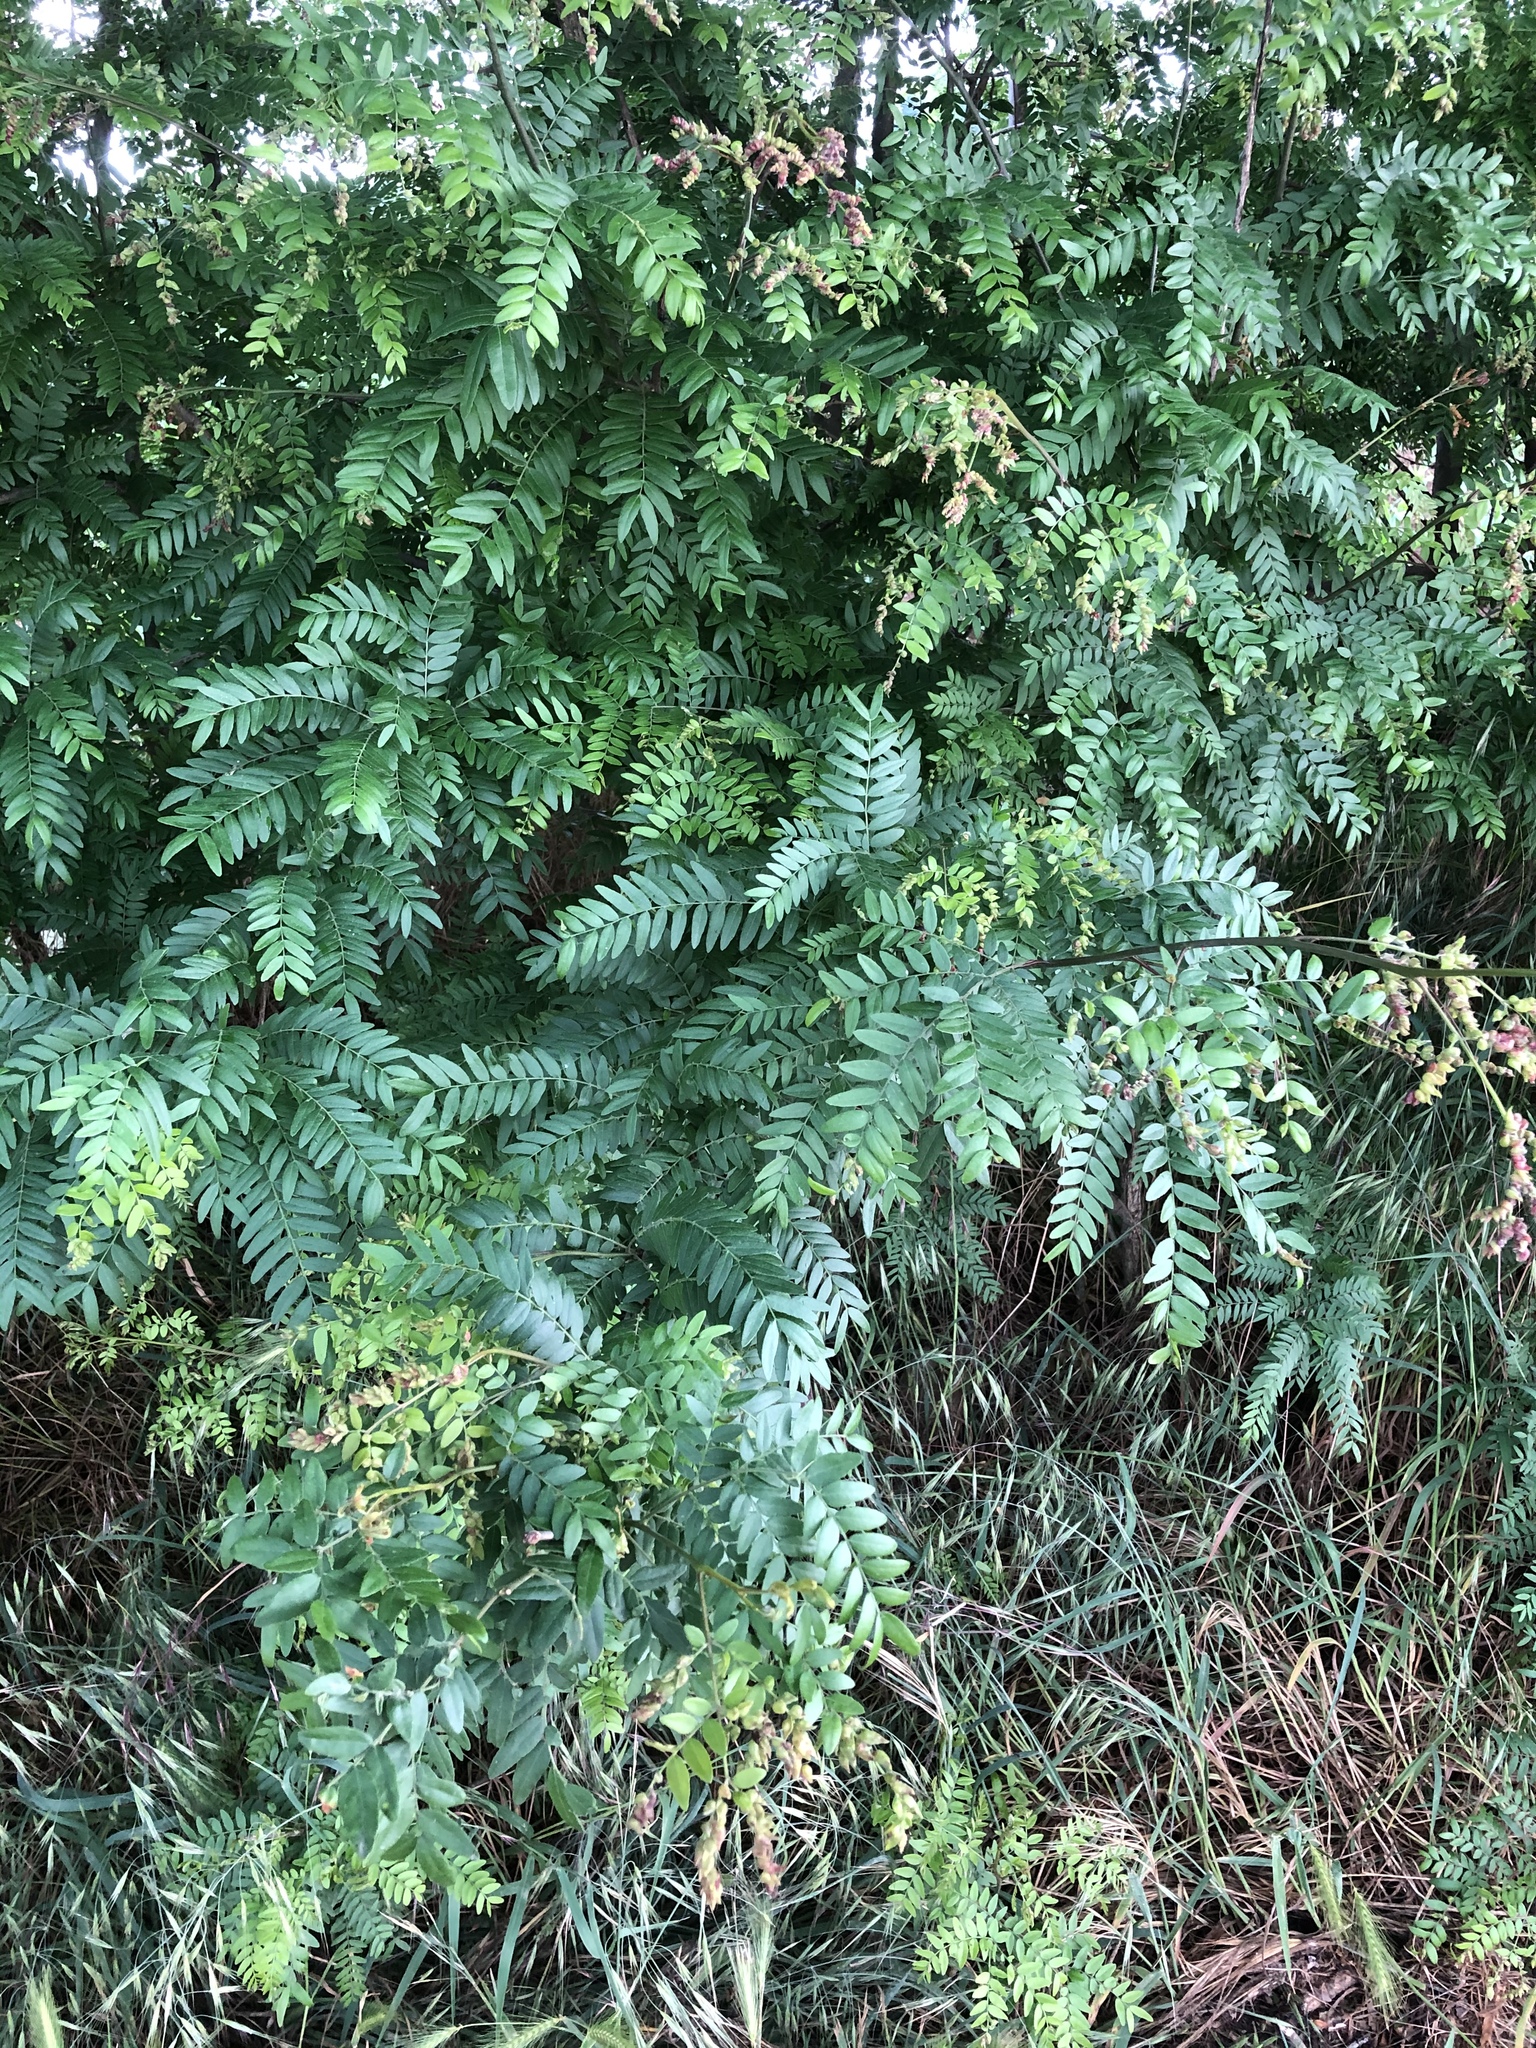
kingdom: Plantae
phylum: Tracheophyta
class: Magnoliopsida
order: Fabales
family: Fabaceae
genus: Gleditsia
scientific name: Gleditsia triacanthos
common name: Common honeylocust
